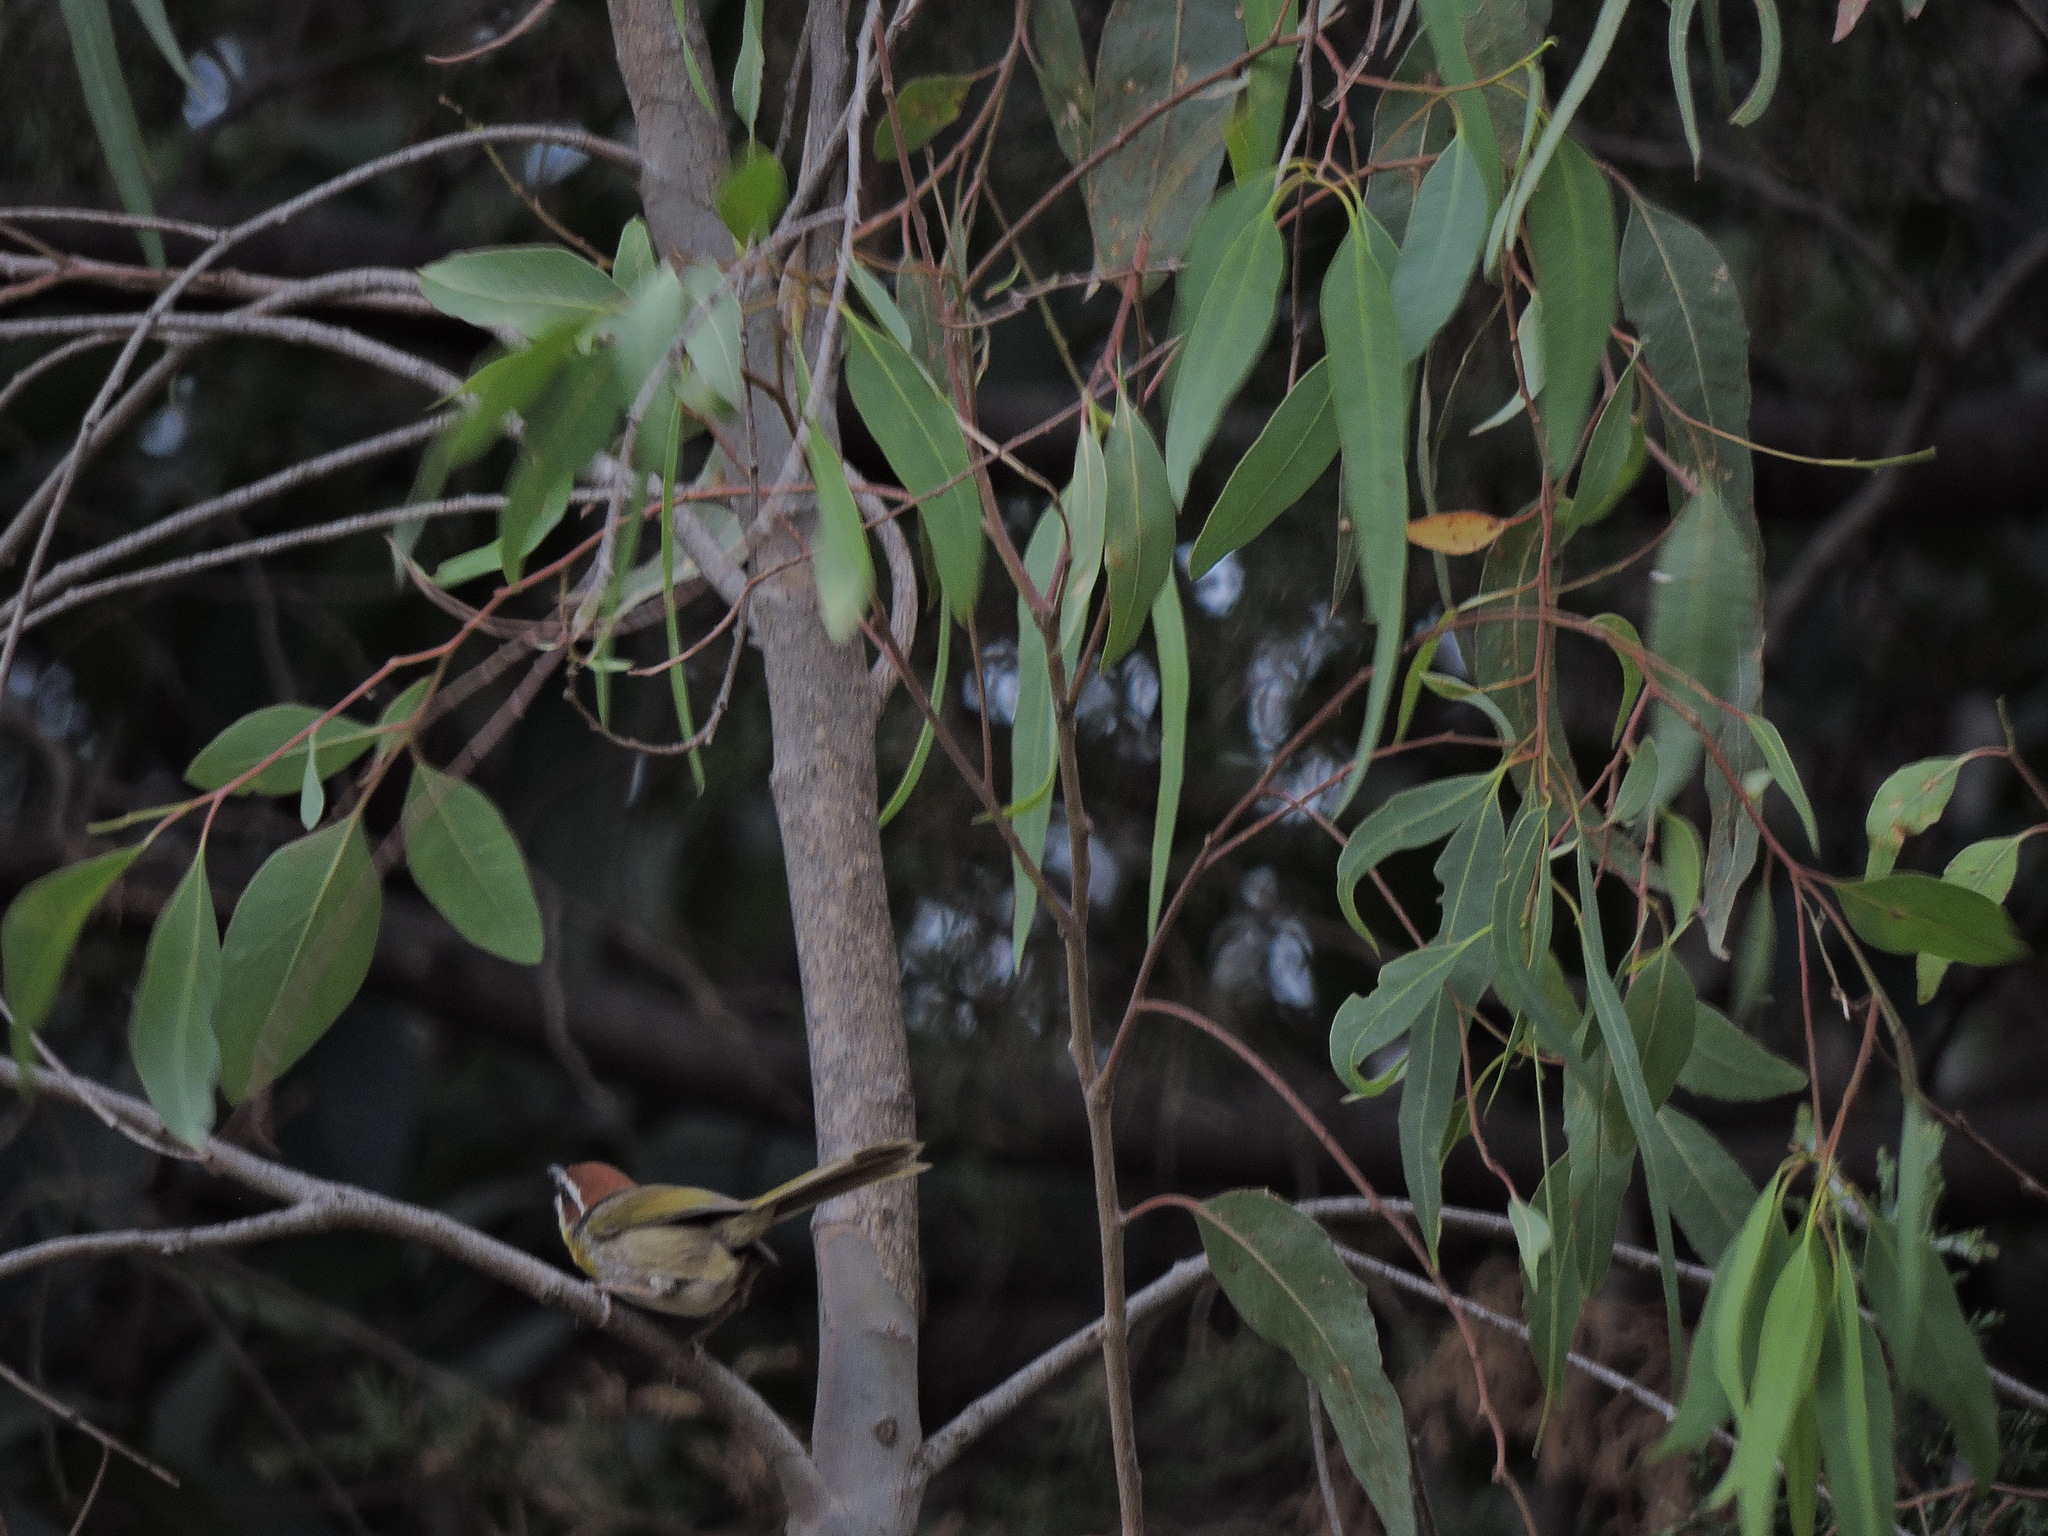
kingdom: Animalia
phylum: Chordata
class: Aves
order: Passeriformes
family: Parulidae
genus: Basileuterus
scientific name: Basileuterus rufifrons
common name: Rufous-capped warbler
